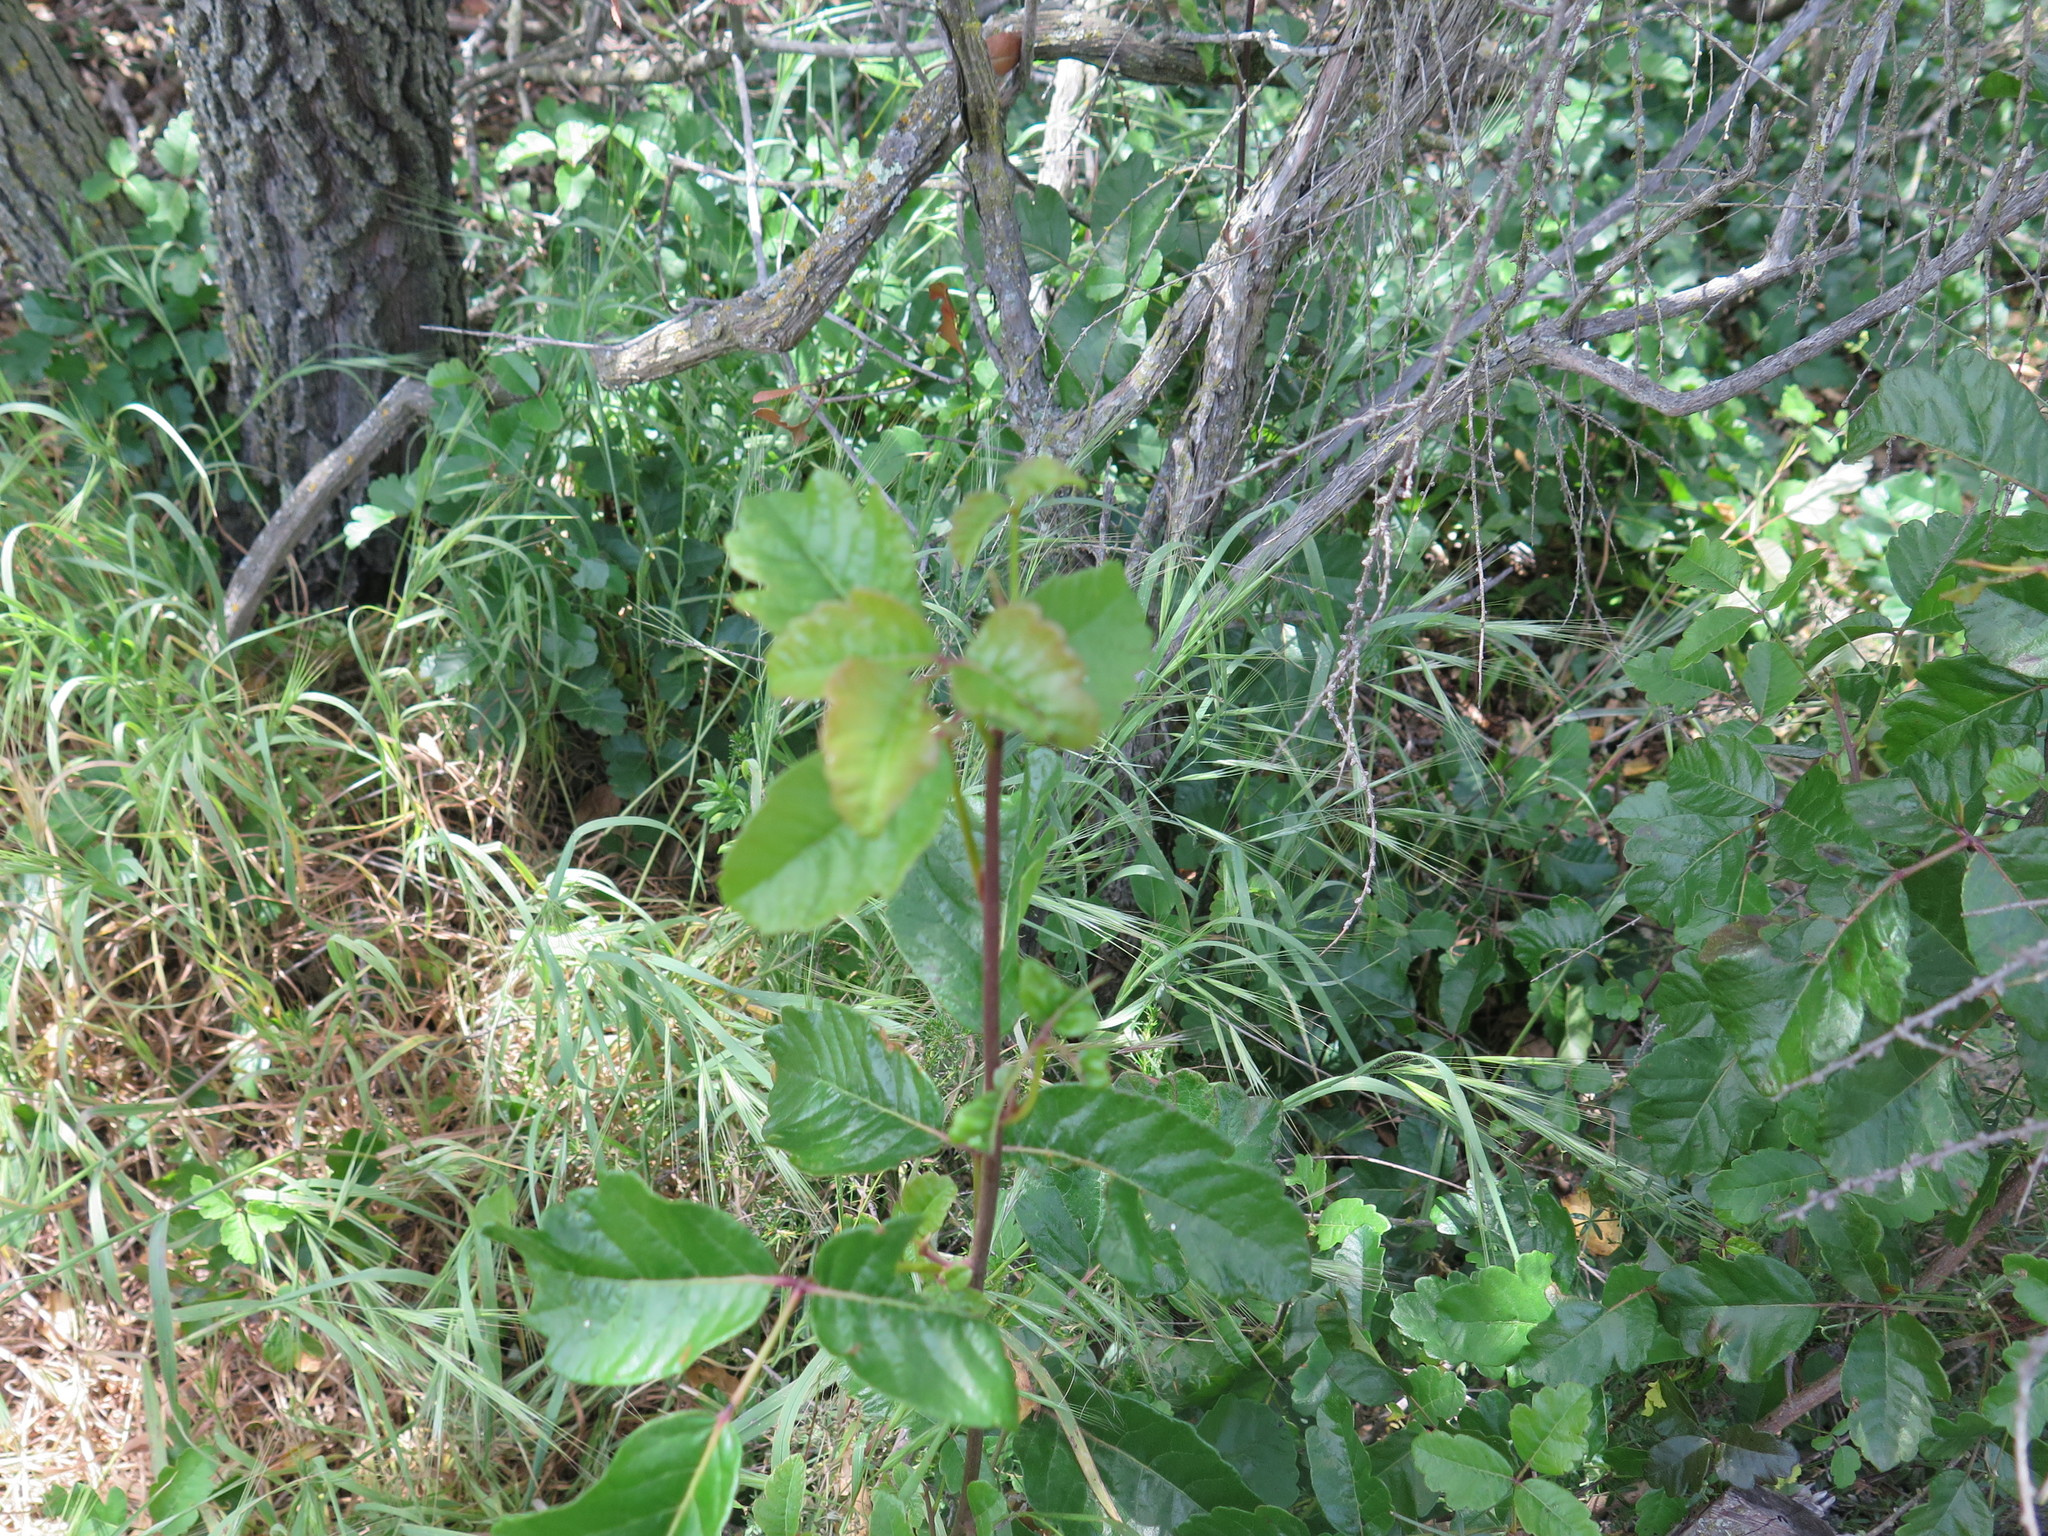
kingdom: Plantae
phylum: Tracheophyta
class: Magnoliopsida
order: Sapindales
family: Anacardiaceae
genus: Toxicodendron
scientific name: Toxicodendron diversilobum
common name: Pacific poison-oak
